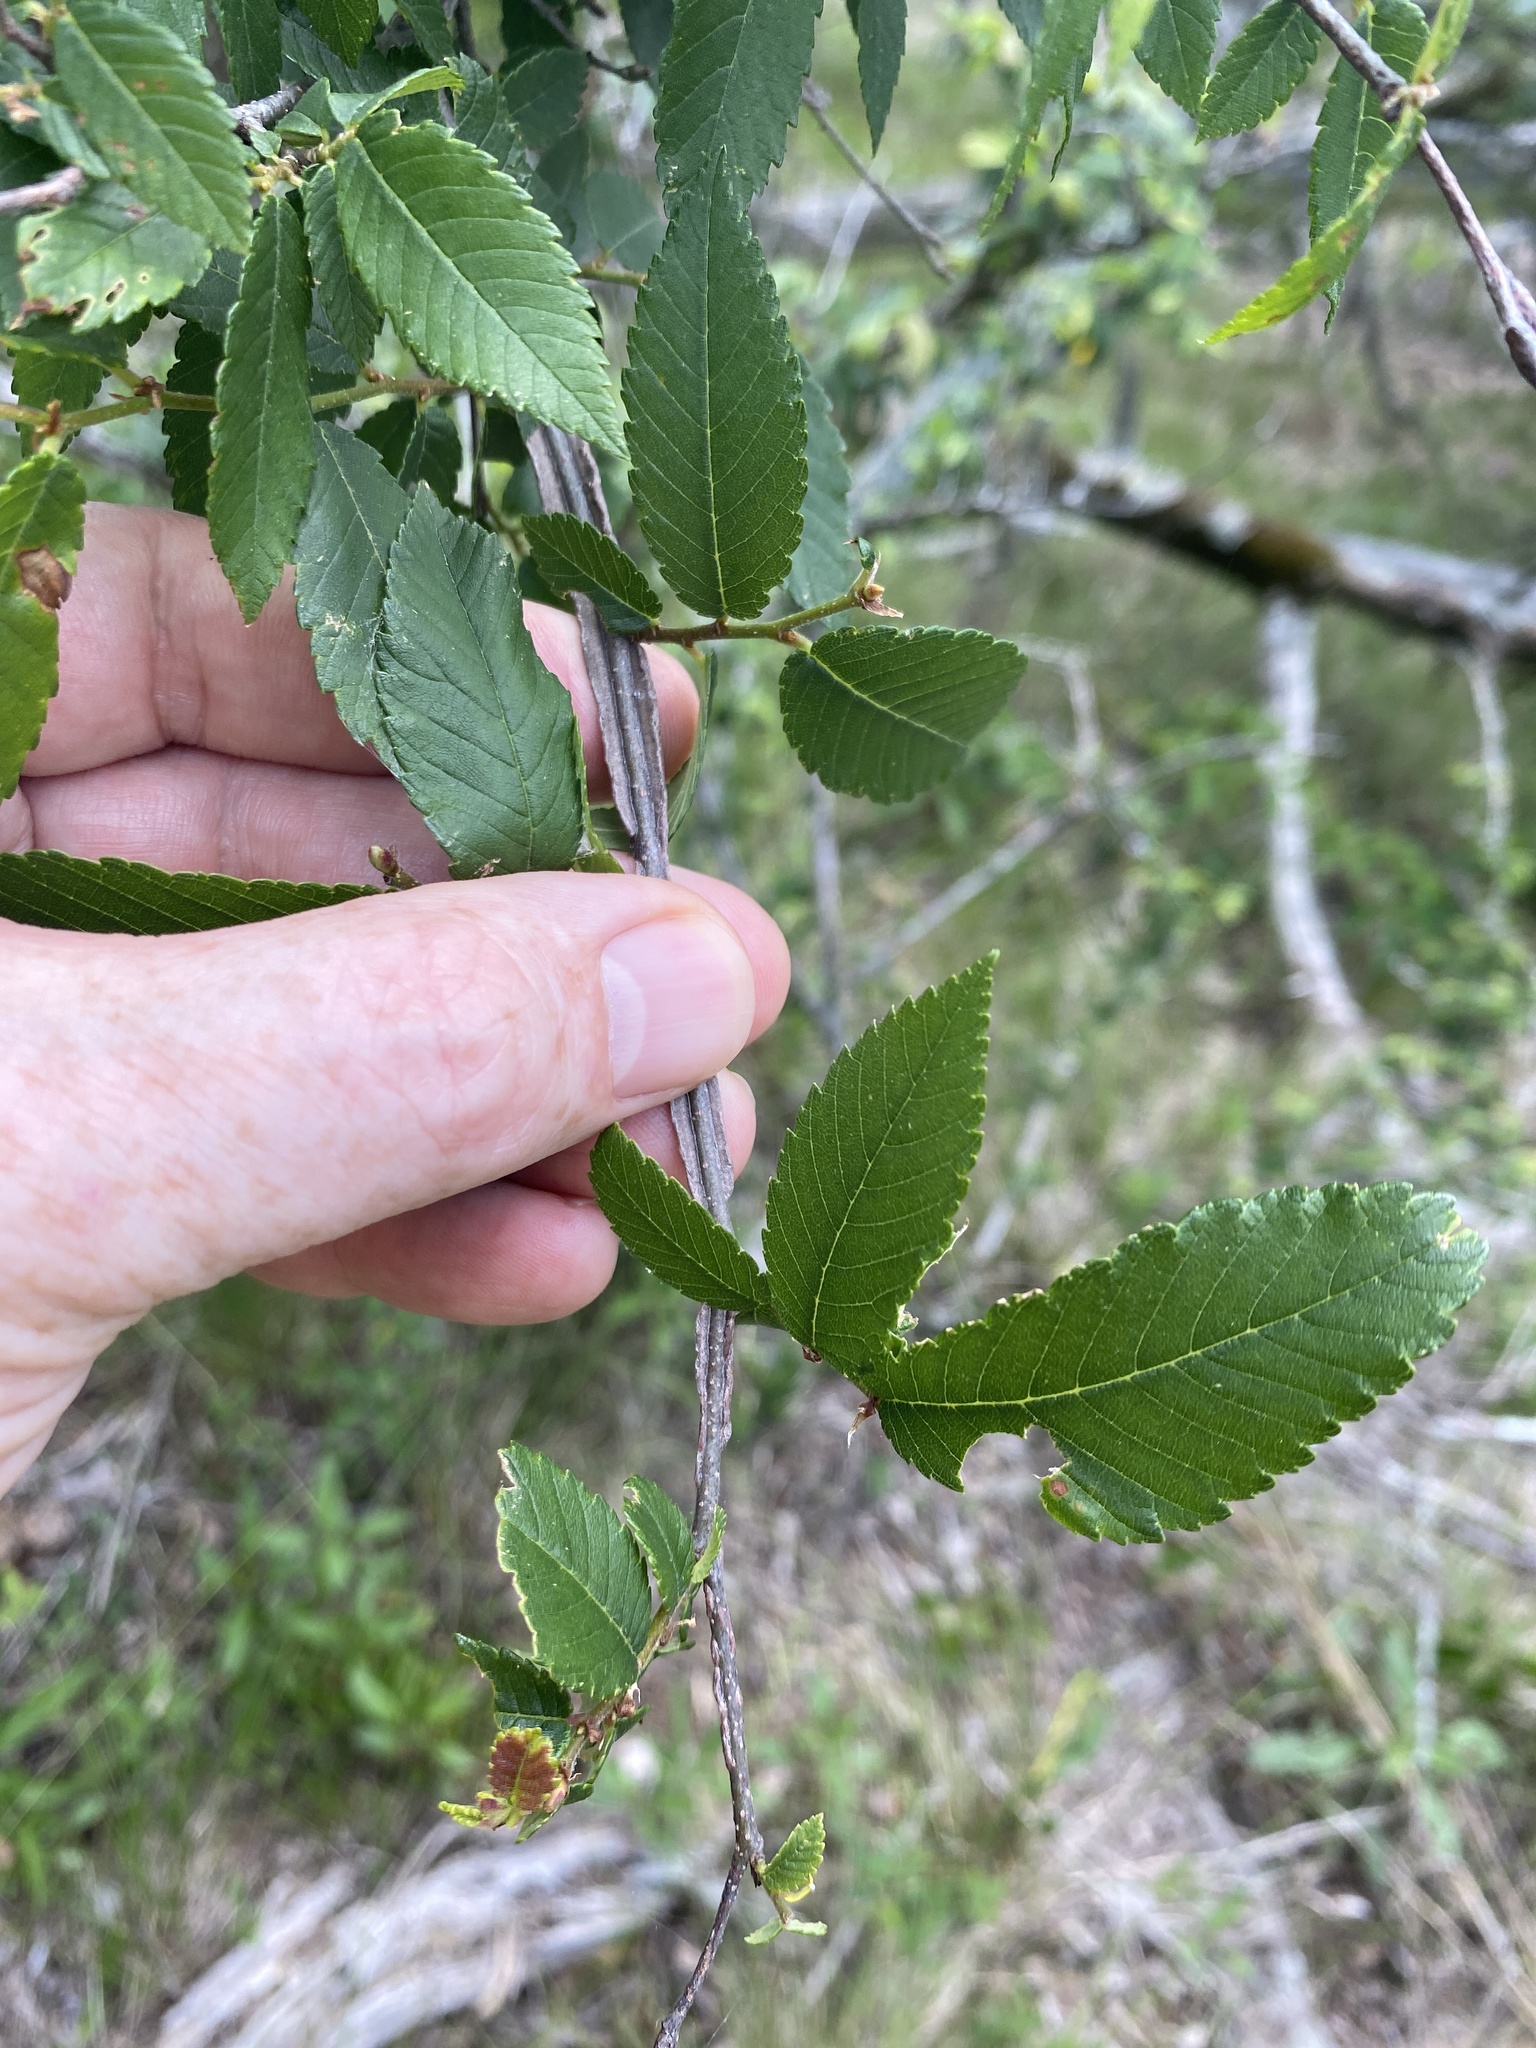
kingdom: Plantae
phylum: Tracheophyta
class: Magnoliopsida
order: Rosales
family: Ulmaceae
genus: Ulmus
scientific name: Ulmus alata
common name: Winged elm
